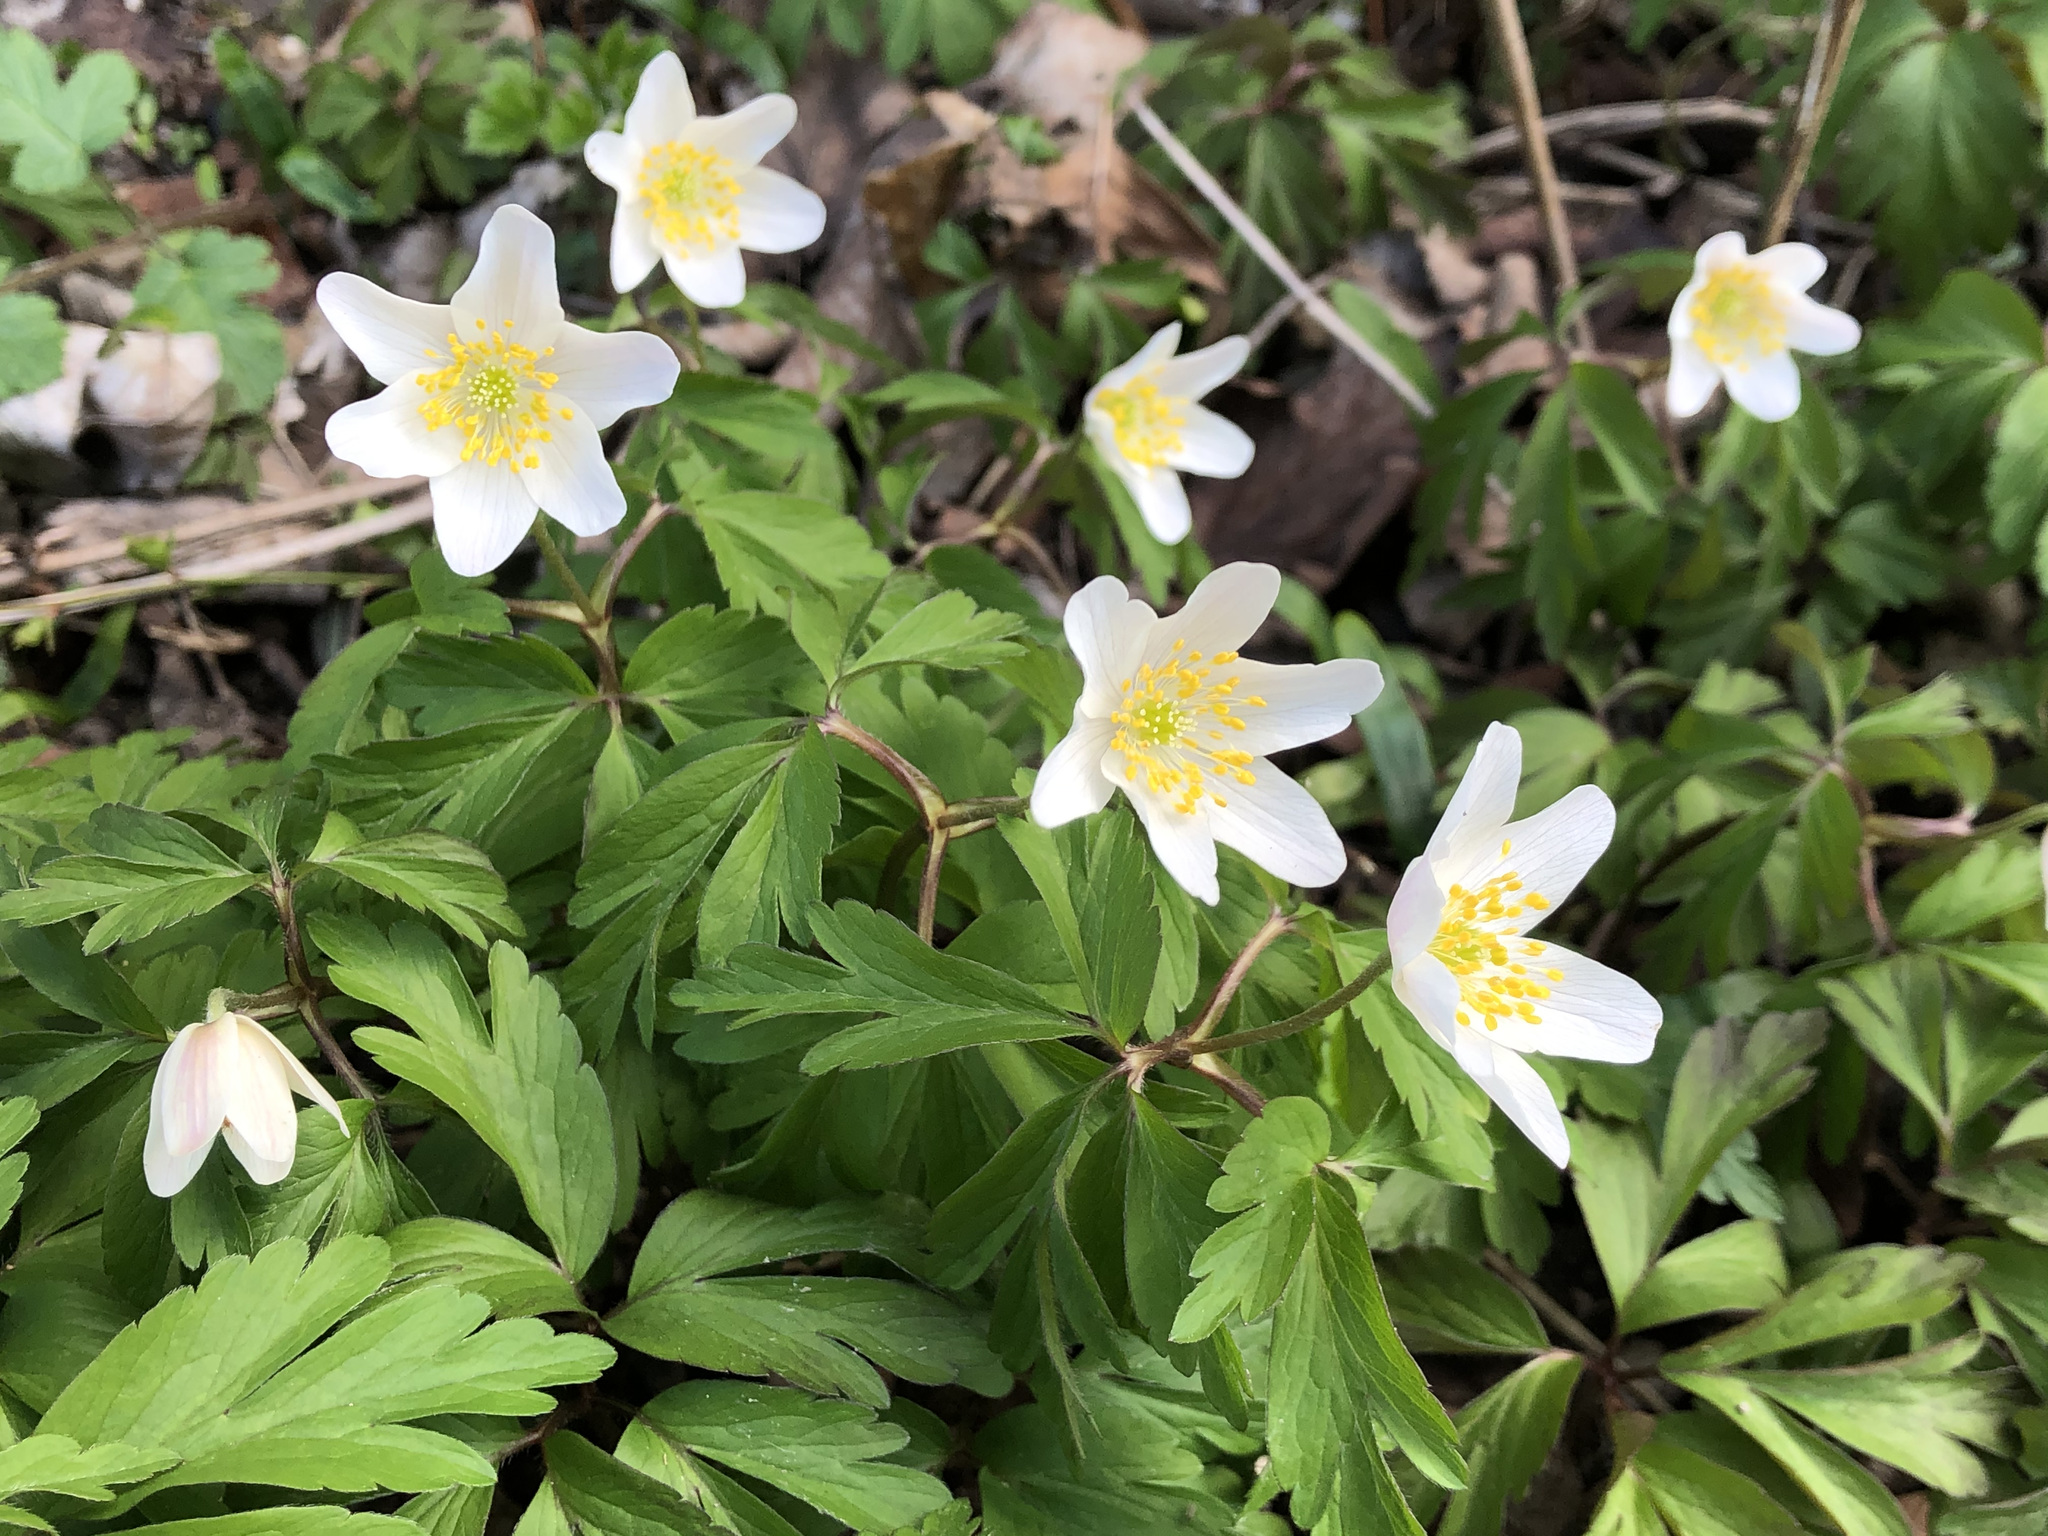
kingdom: Plantae
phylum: Tracheophyta
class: Magnoliopsida
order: Ranunculales
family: Ranunculaceae
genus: Anemone
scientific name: Anemone nemorosa
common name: Wood anemone
